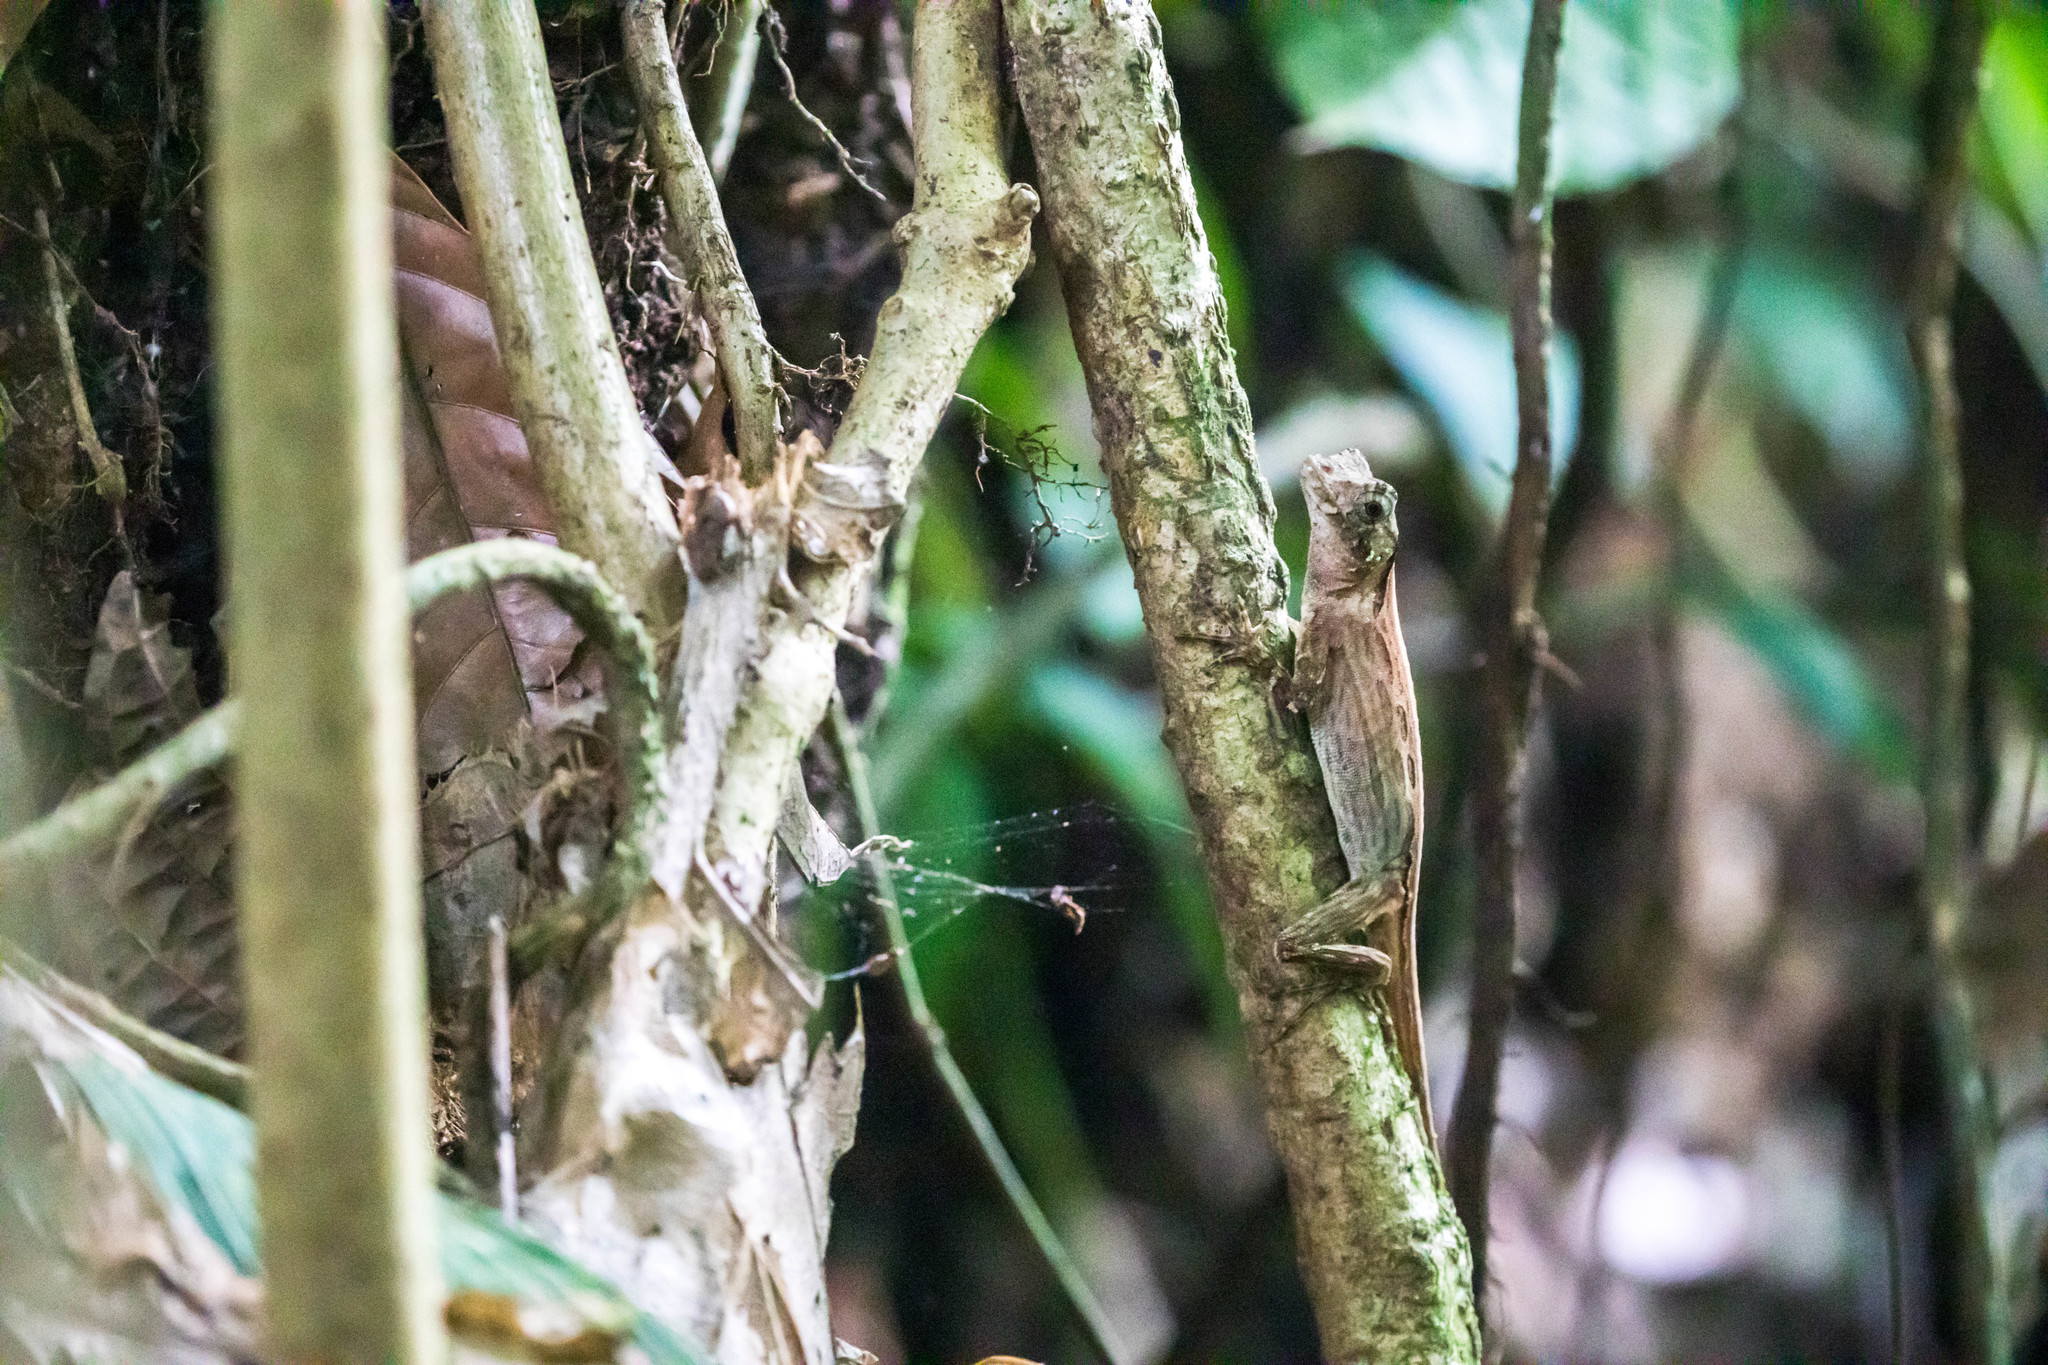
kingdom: Animalia
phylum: Chordata
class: Squamata
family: Dactyloidae
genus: Anolis
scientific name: Anolis capito
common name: Bighead anole
